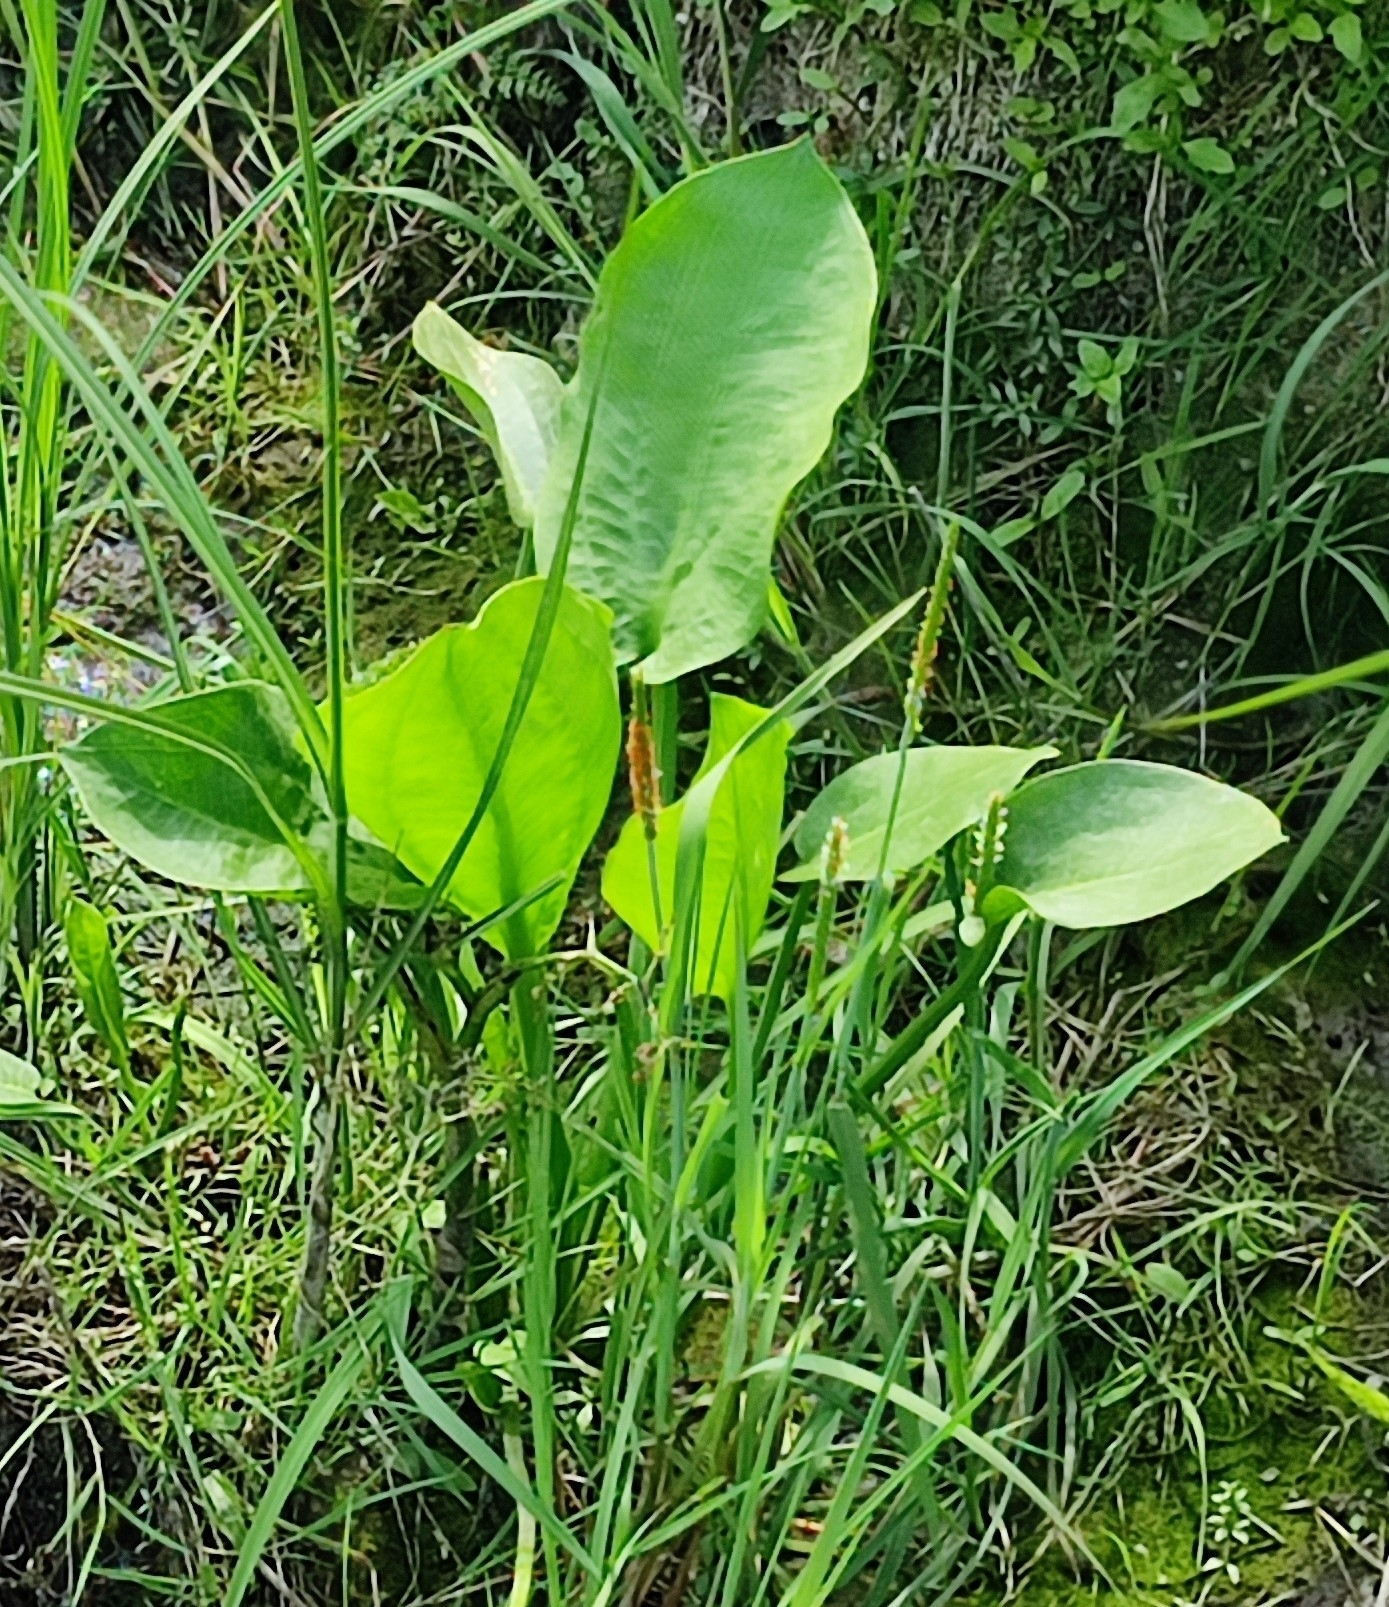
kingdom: Plantae
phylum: Tracheophyta
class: Liliopsida
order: Alismatales
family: Alismataceae
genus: Alisma
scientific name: Alisma plantago-aquatica
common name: Water-plantain
